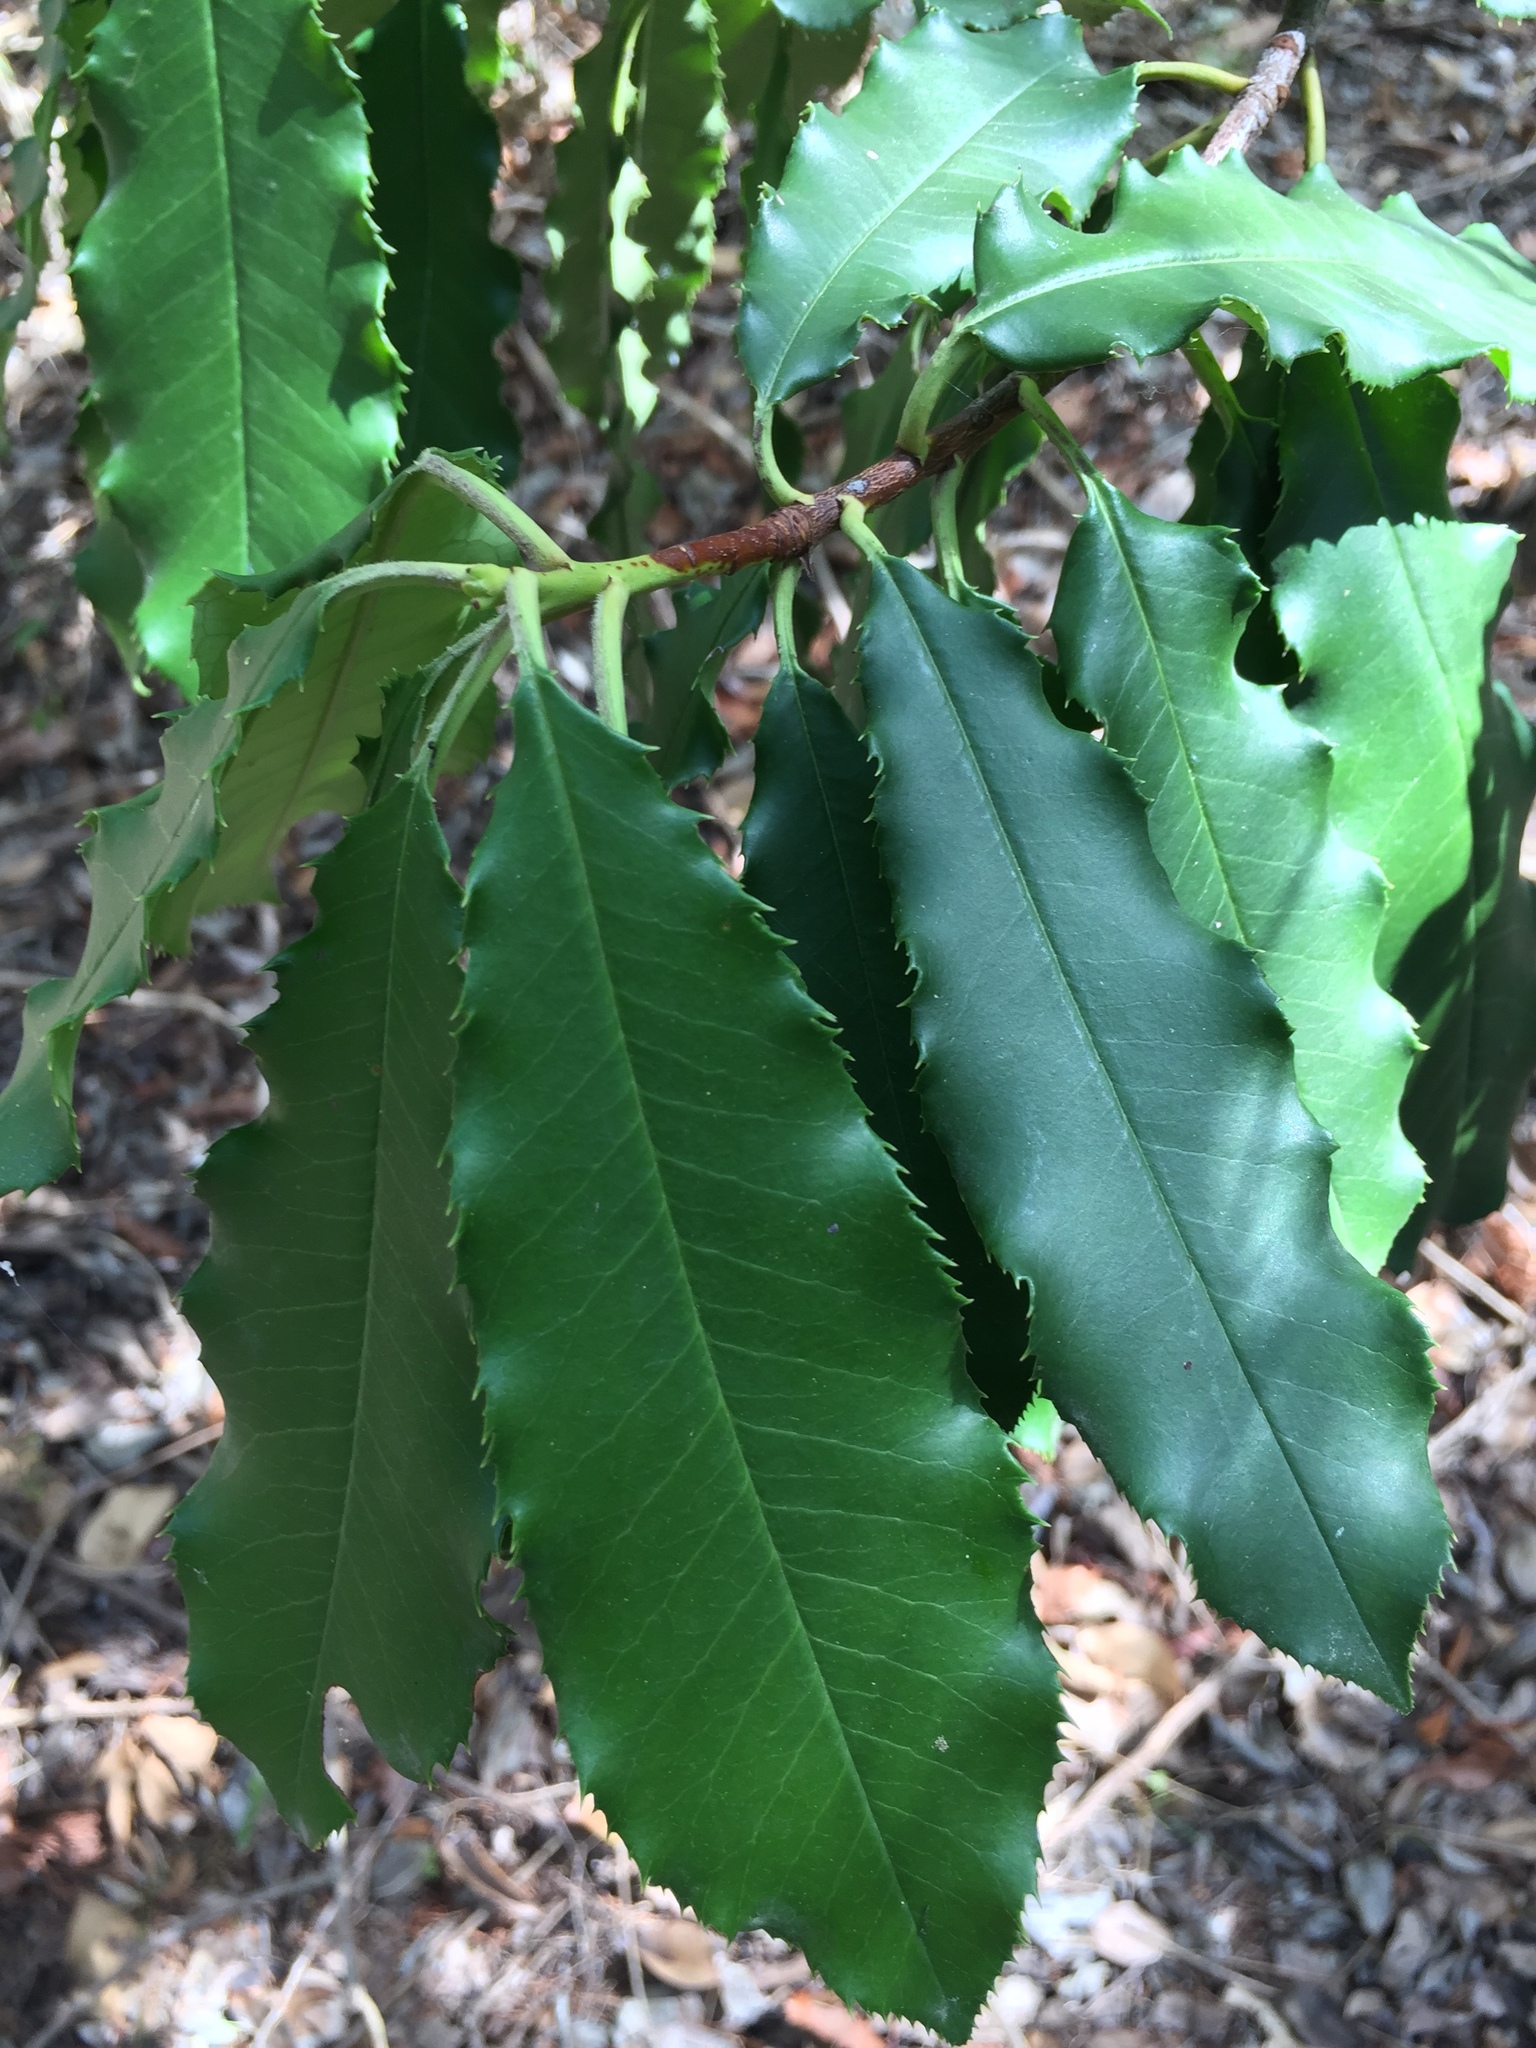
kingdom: Plantae
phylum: Tracheophyta
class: Magnoliopsida
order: Rosales
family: Rosaceae
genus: Photinia
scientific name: Photinia serratifolia
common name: Taiwanese photinia
